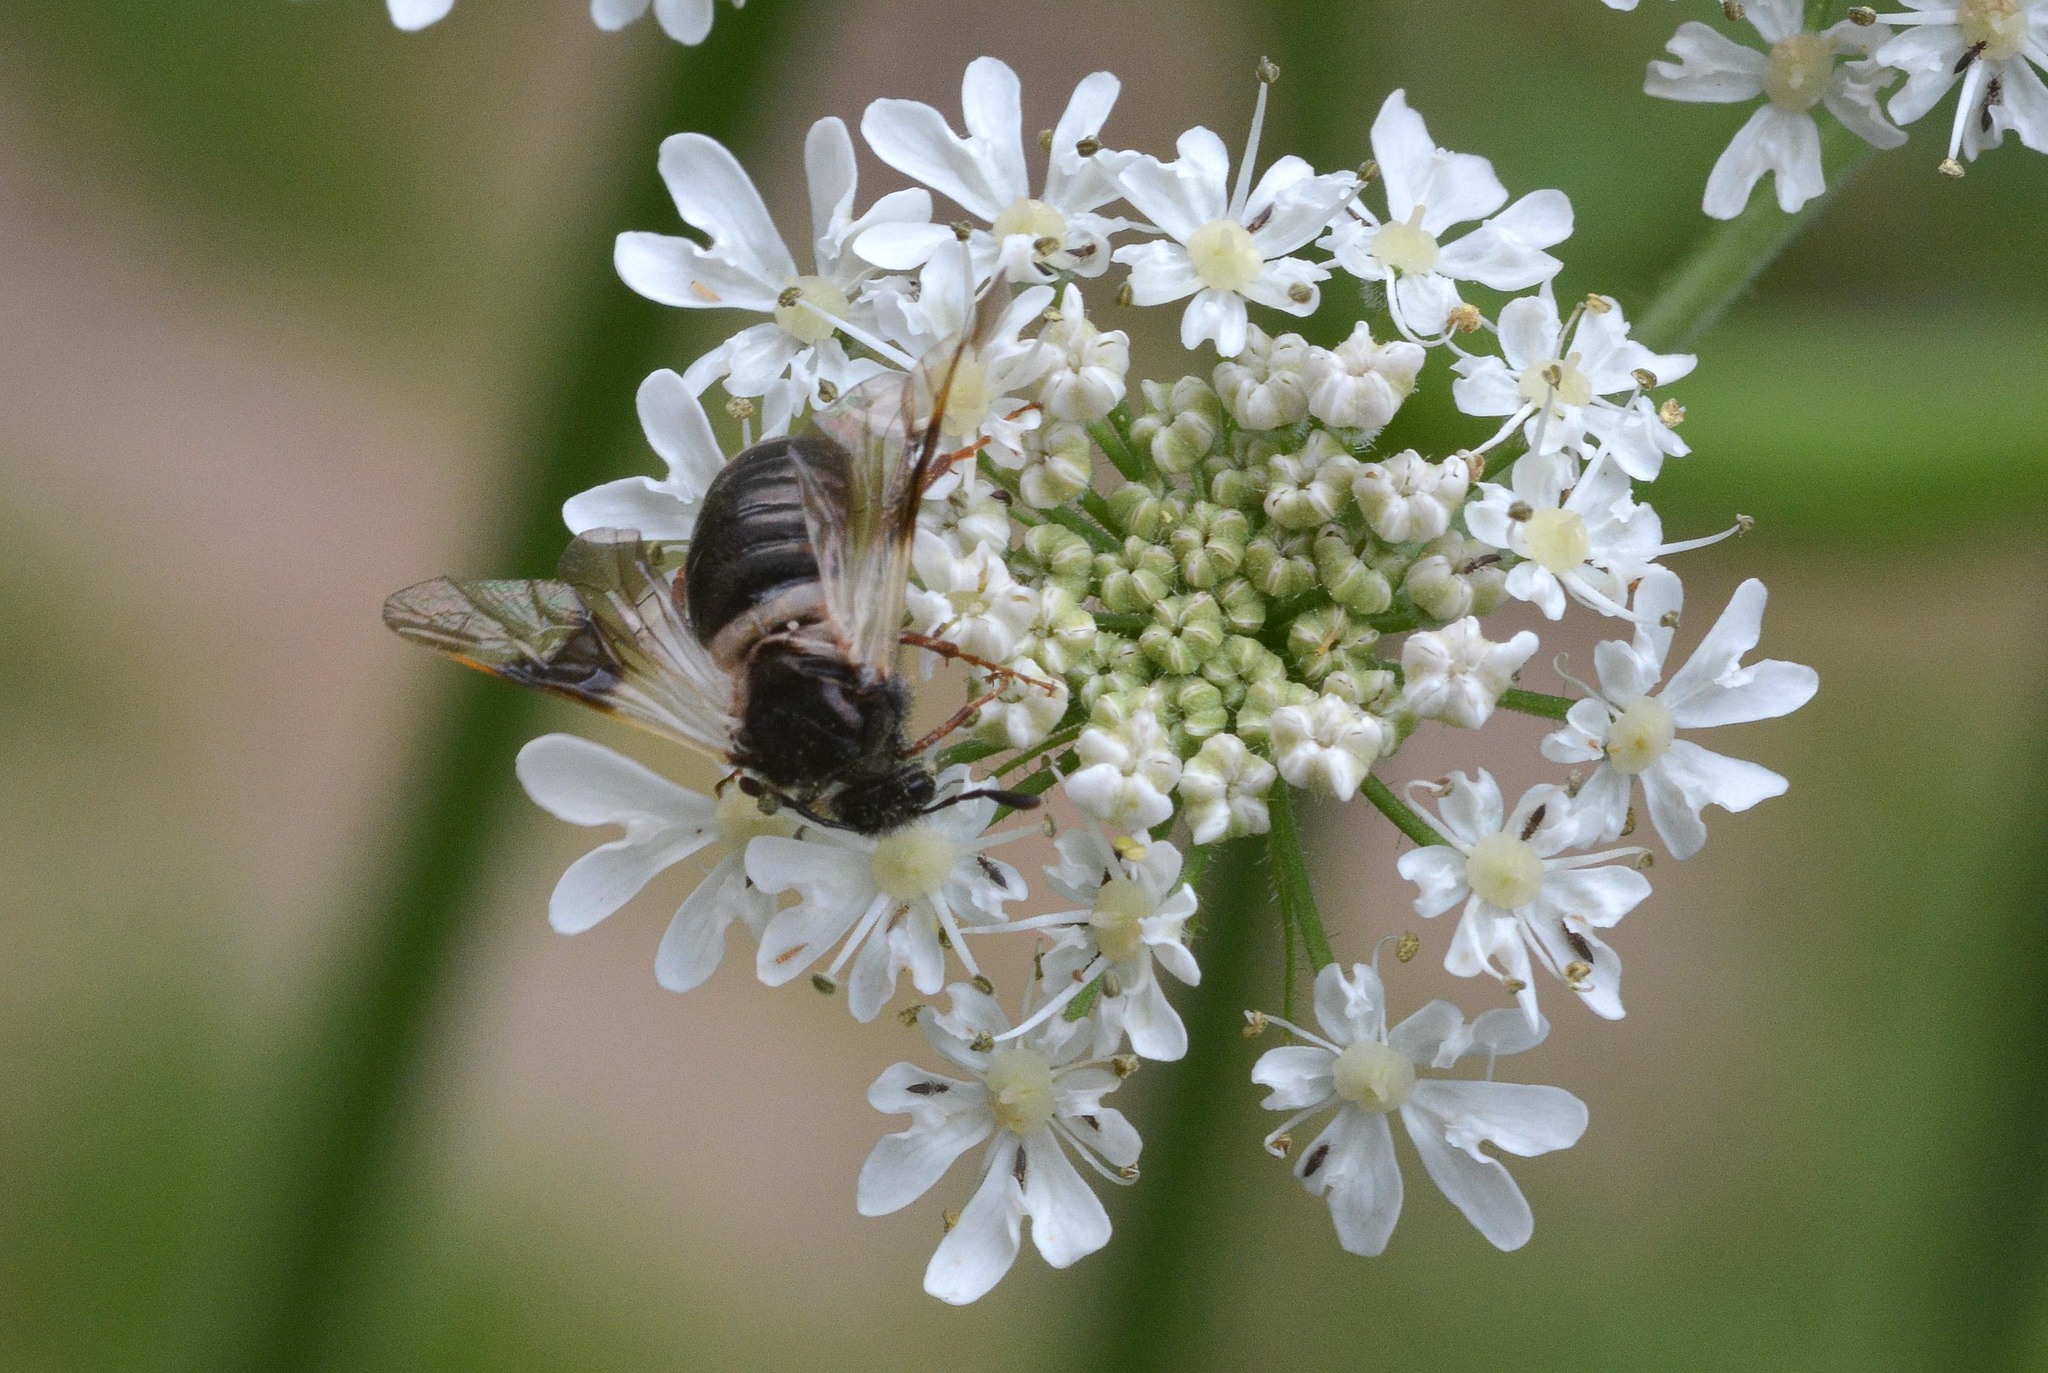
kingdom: Animalia
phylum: Arthropoda
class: Insecta
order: Hymenoptera
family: Cimbicidae
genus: Abia
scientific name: Abia fasciata
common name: Banded honeysuckle sawfly
